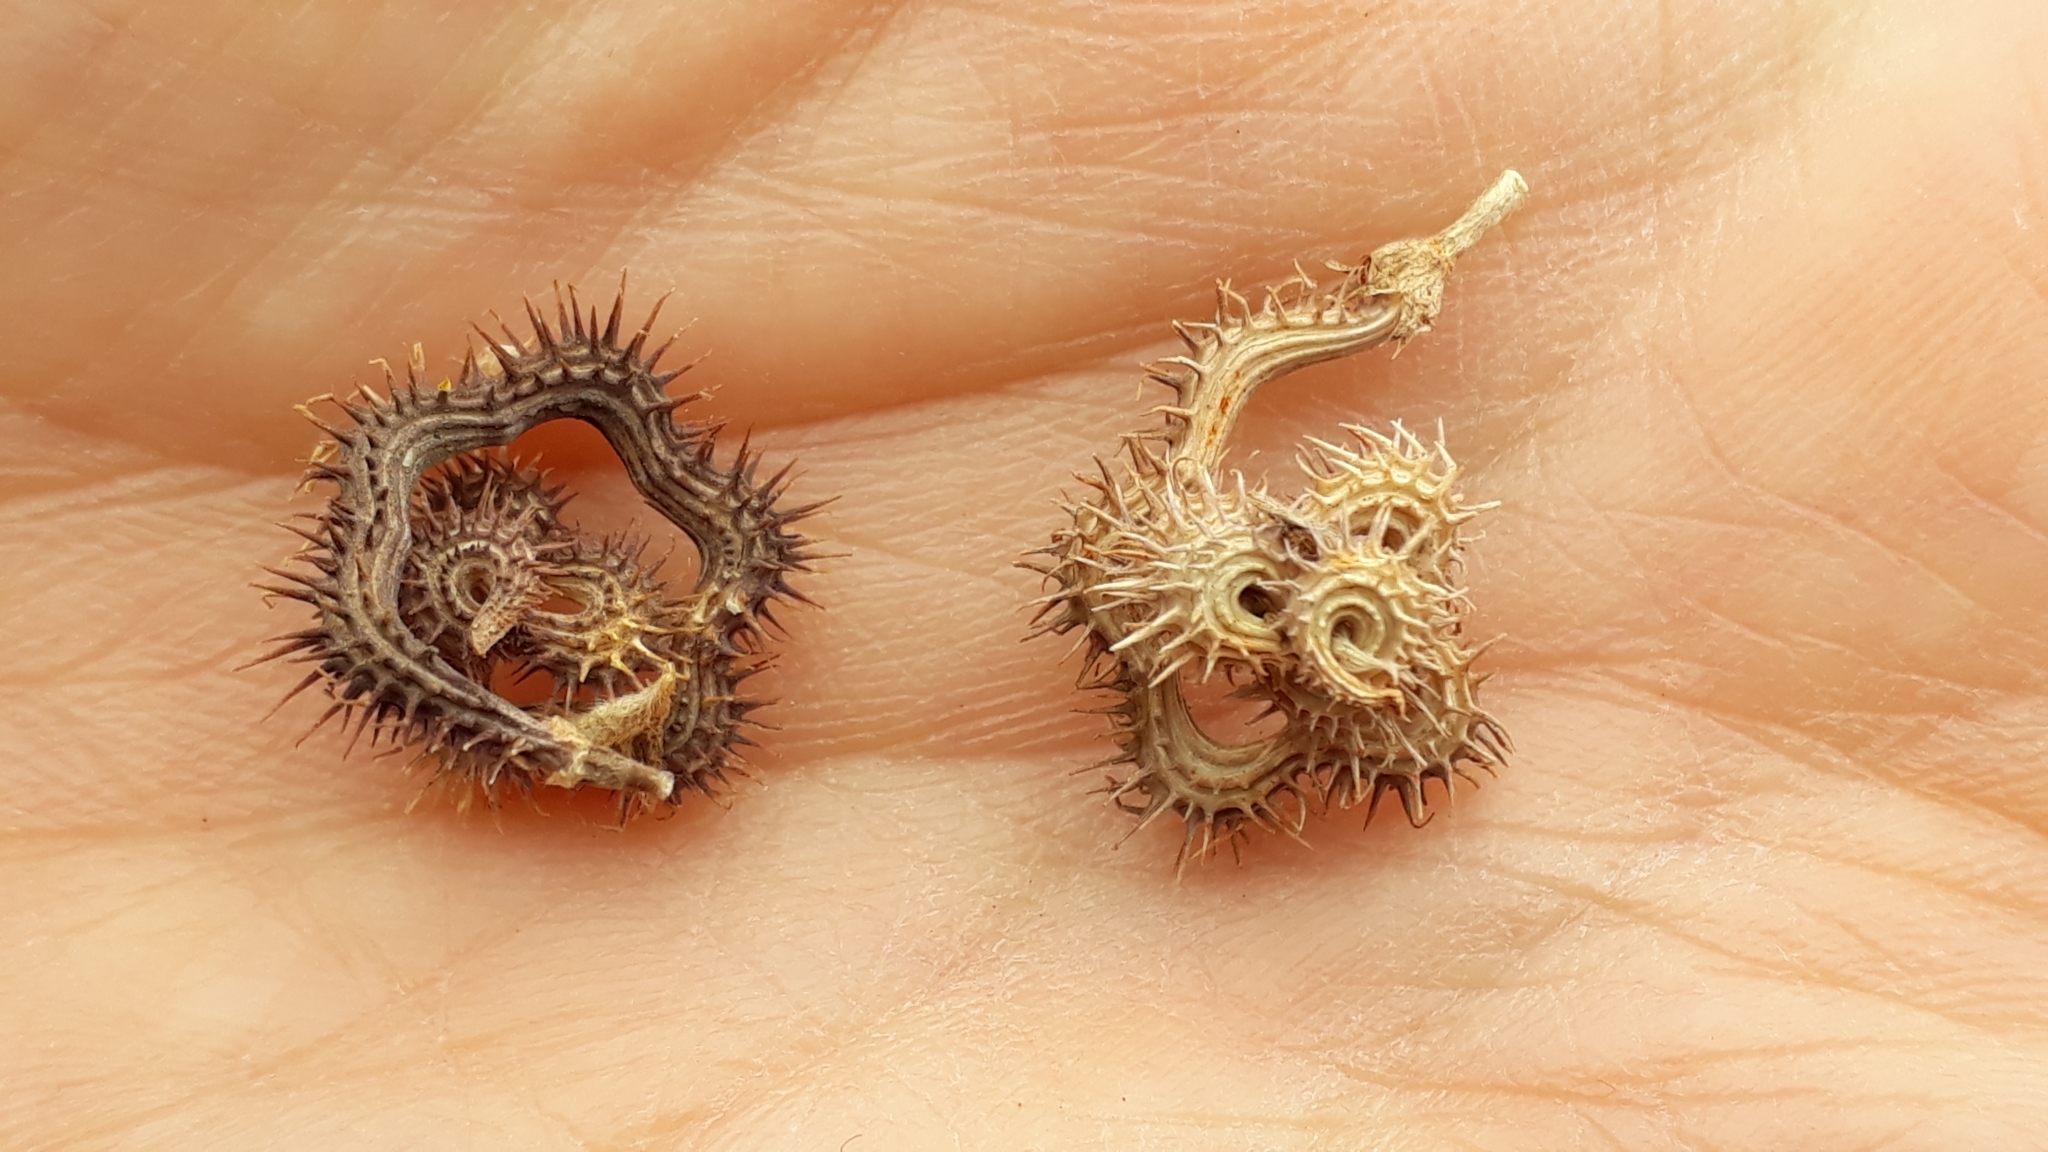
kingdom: Plantae
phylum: Tracheophyta
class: Magnoliopsida
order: Fabales
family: Fabaceae
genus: Scorpiurus
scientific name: Scorpiurus muricatus
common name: Caterpillar-plant
